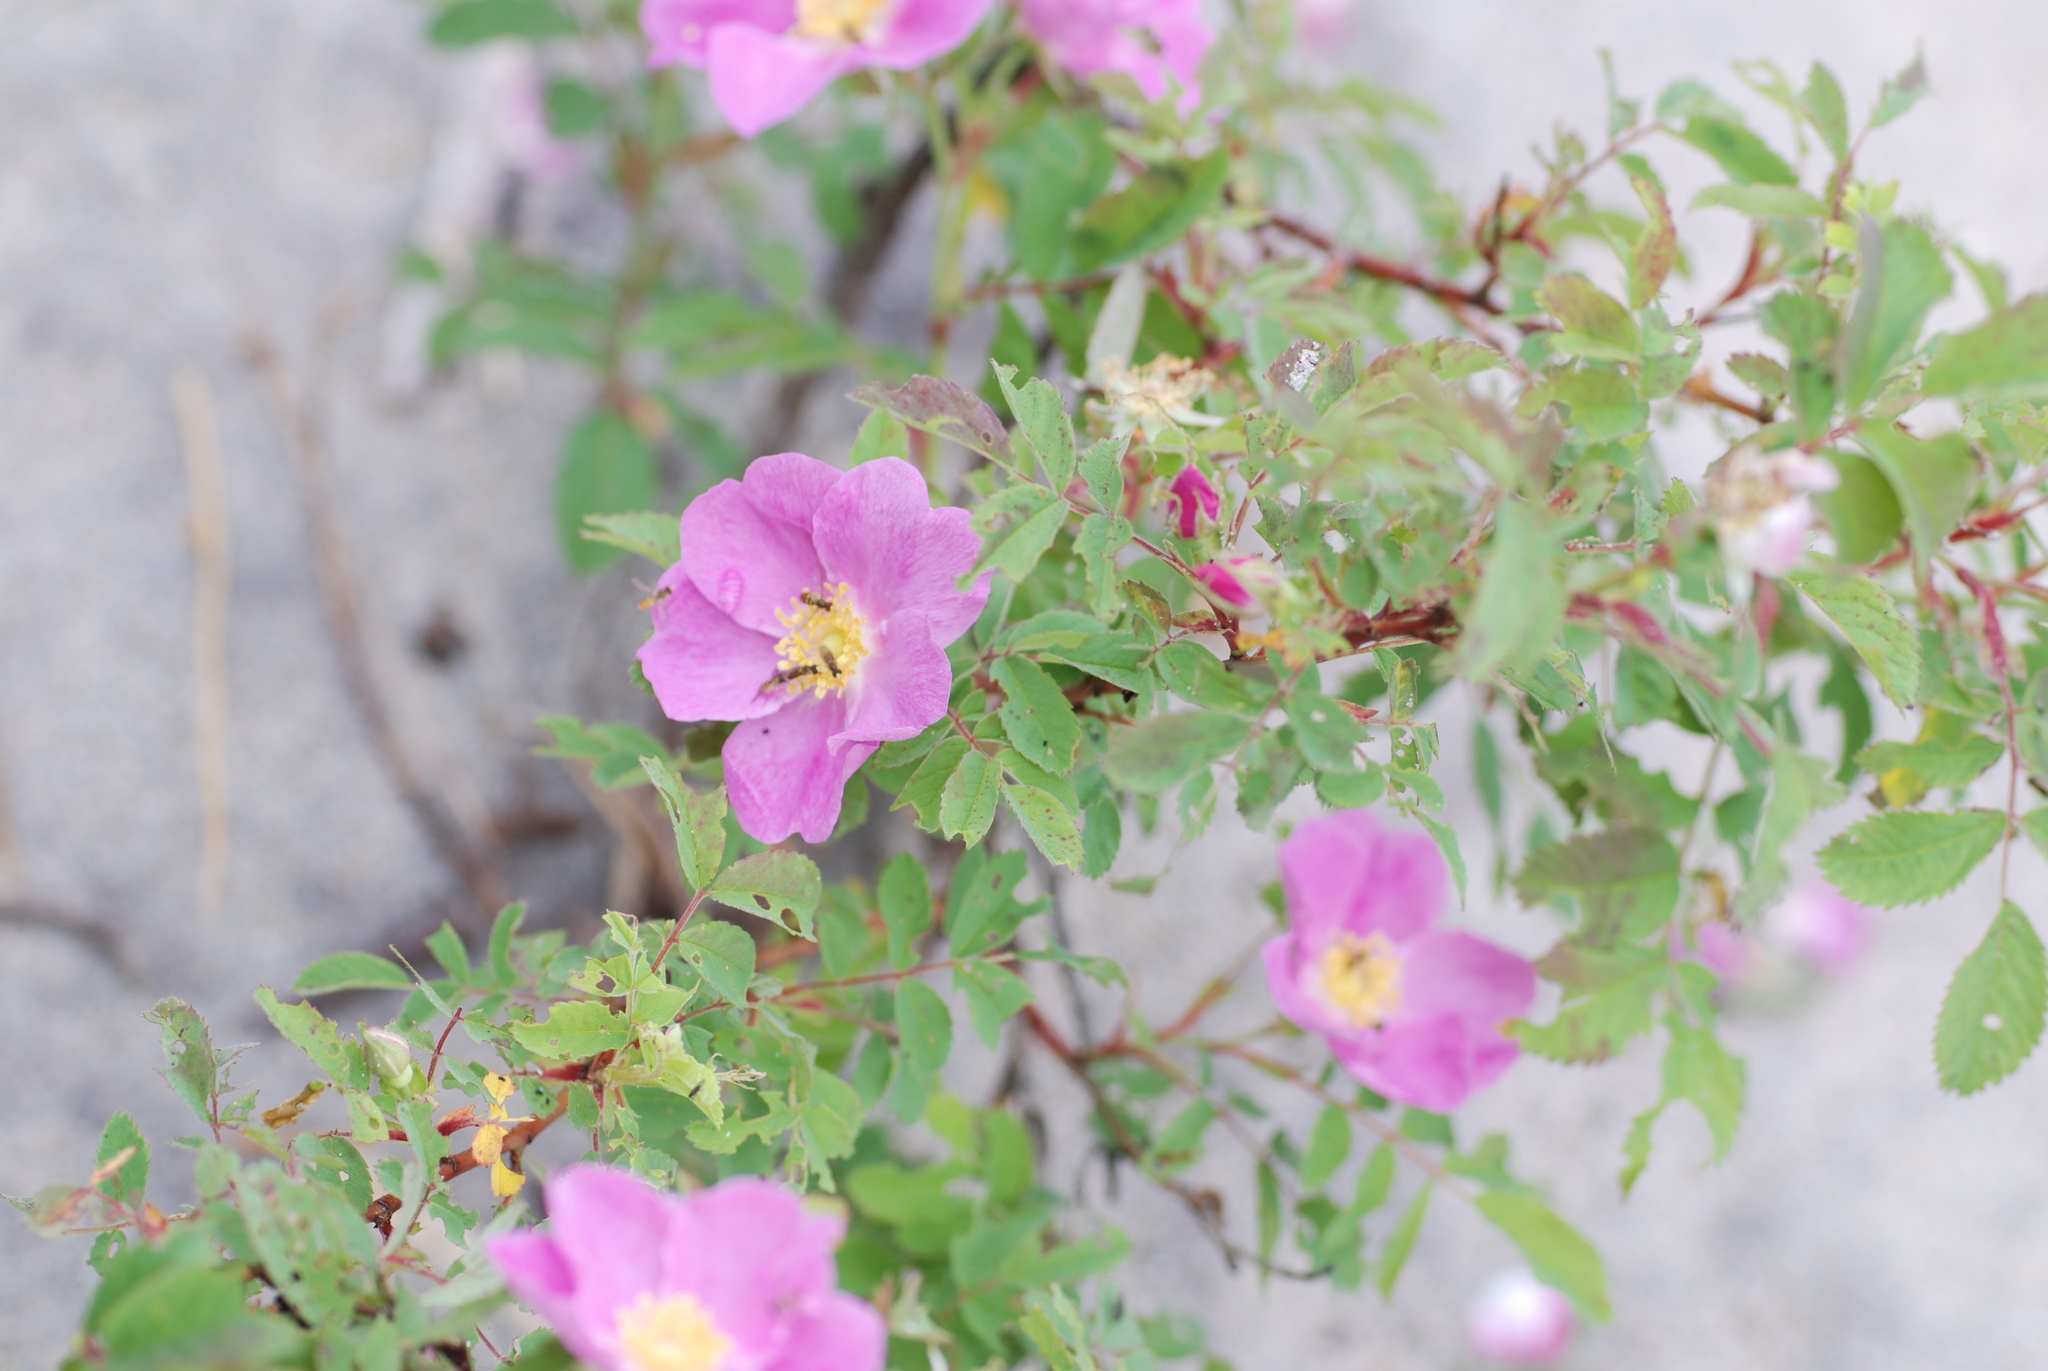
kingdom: Plantae
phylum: Tracheophyta
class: Magnoliopsida
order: Rosales
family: Rosaceae
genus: Rosa
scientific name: Rosa blanda
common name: Smooth rose
